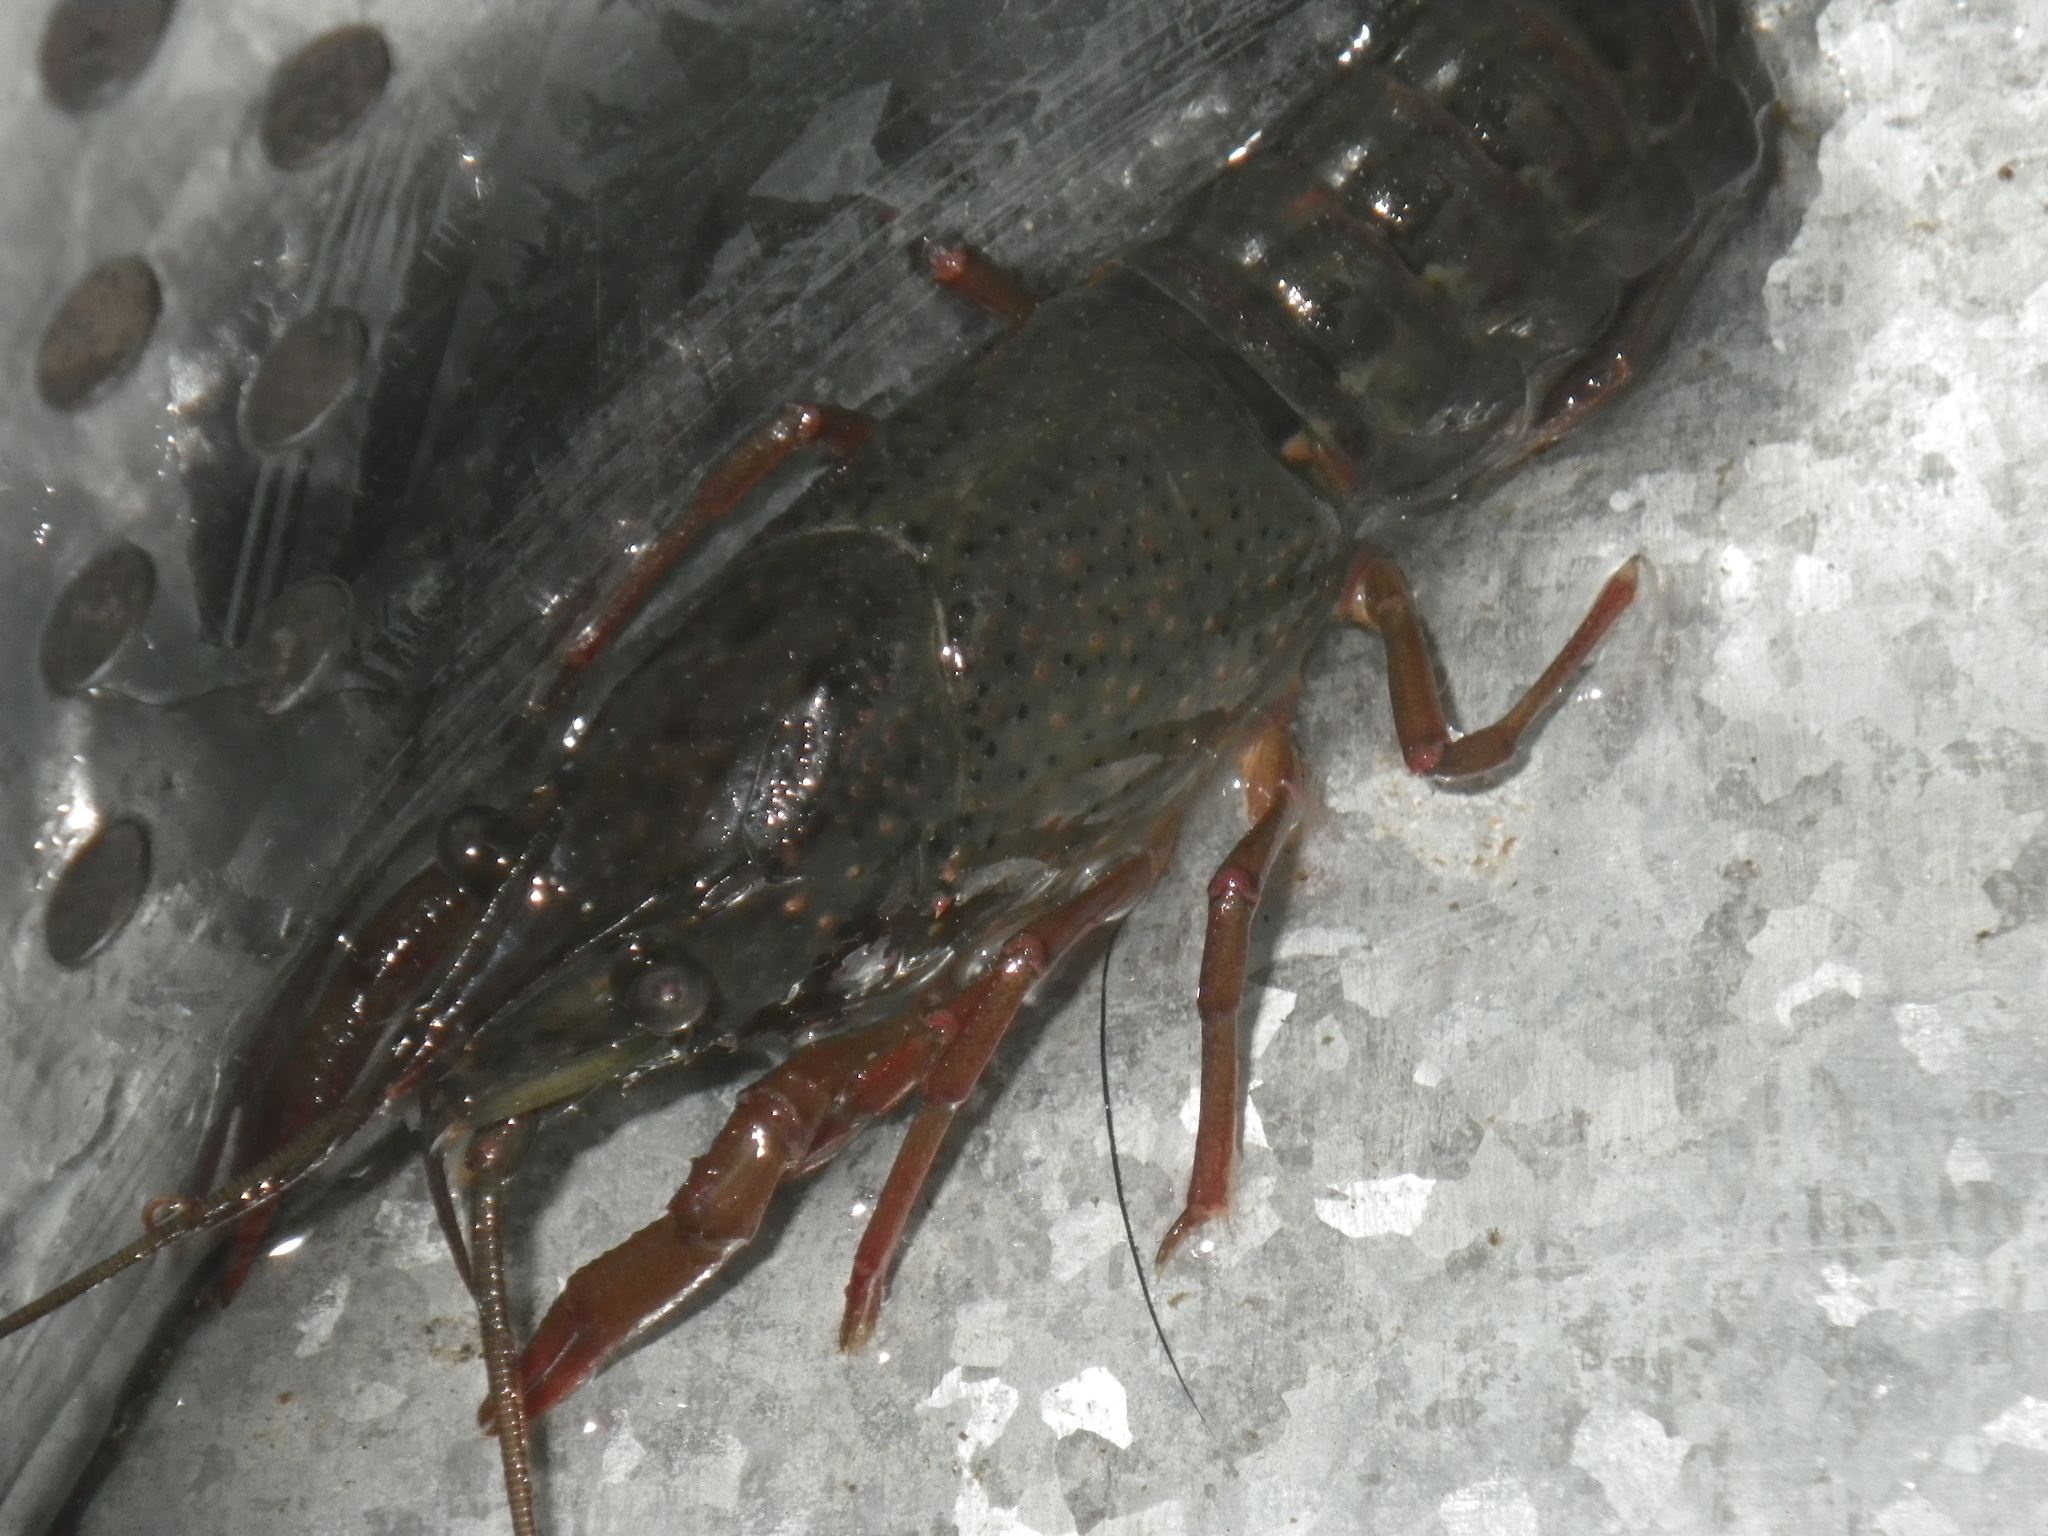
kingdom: Animalia
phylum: Arthropoda
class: Malacostraca
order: Decapoda
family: Cambaridae
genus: Procambarus
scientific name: Procambarus clarkii
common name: Red swamp crayfish
